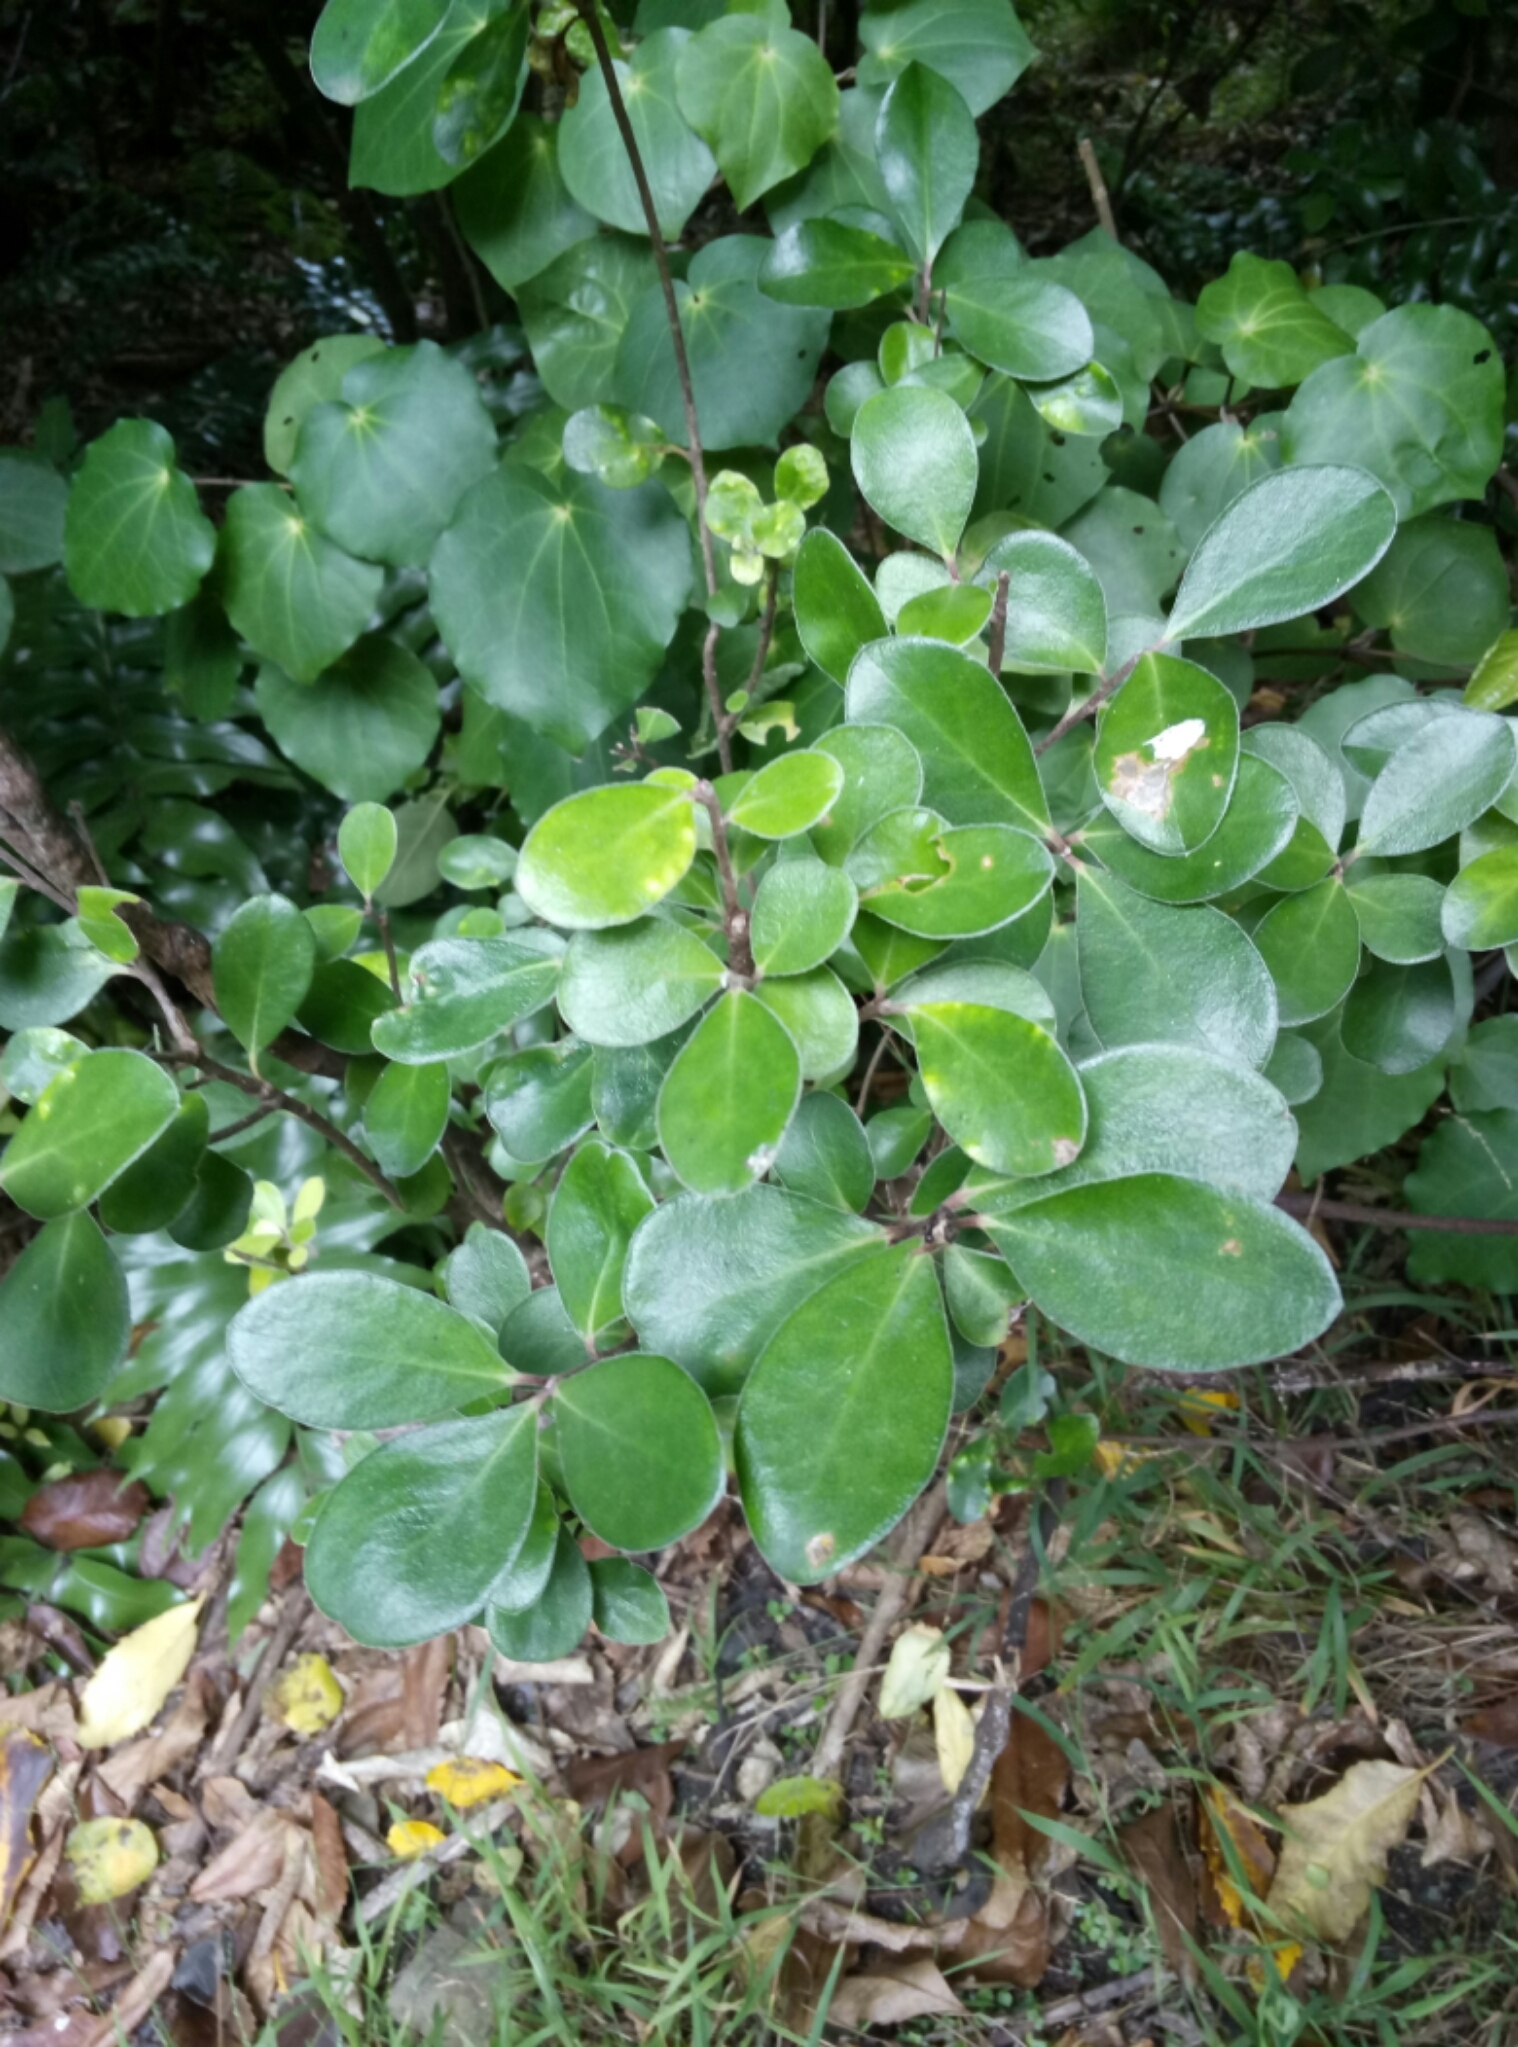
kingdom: Plantae
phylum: Tracheophyta
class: Magnoliopsida
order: Apiales
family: Pittosporaceae
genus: Pittosporum
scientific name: Pittosporum crassifolium
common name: Karo
